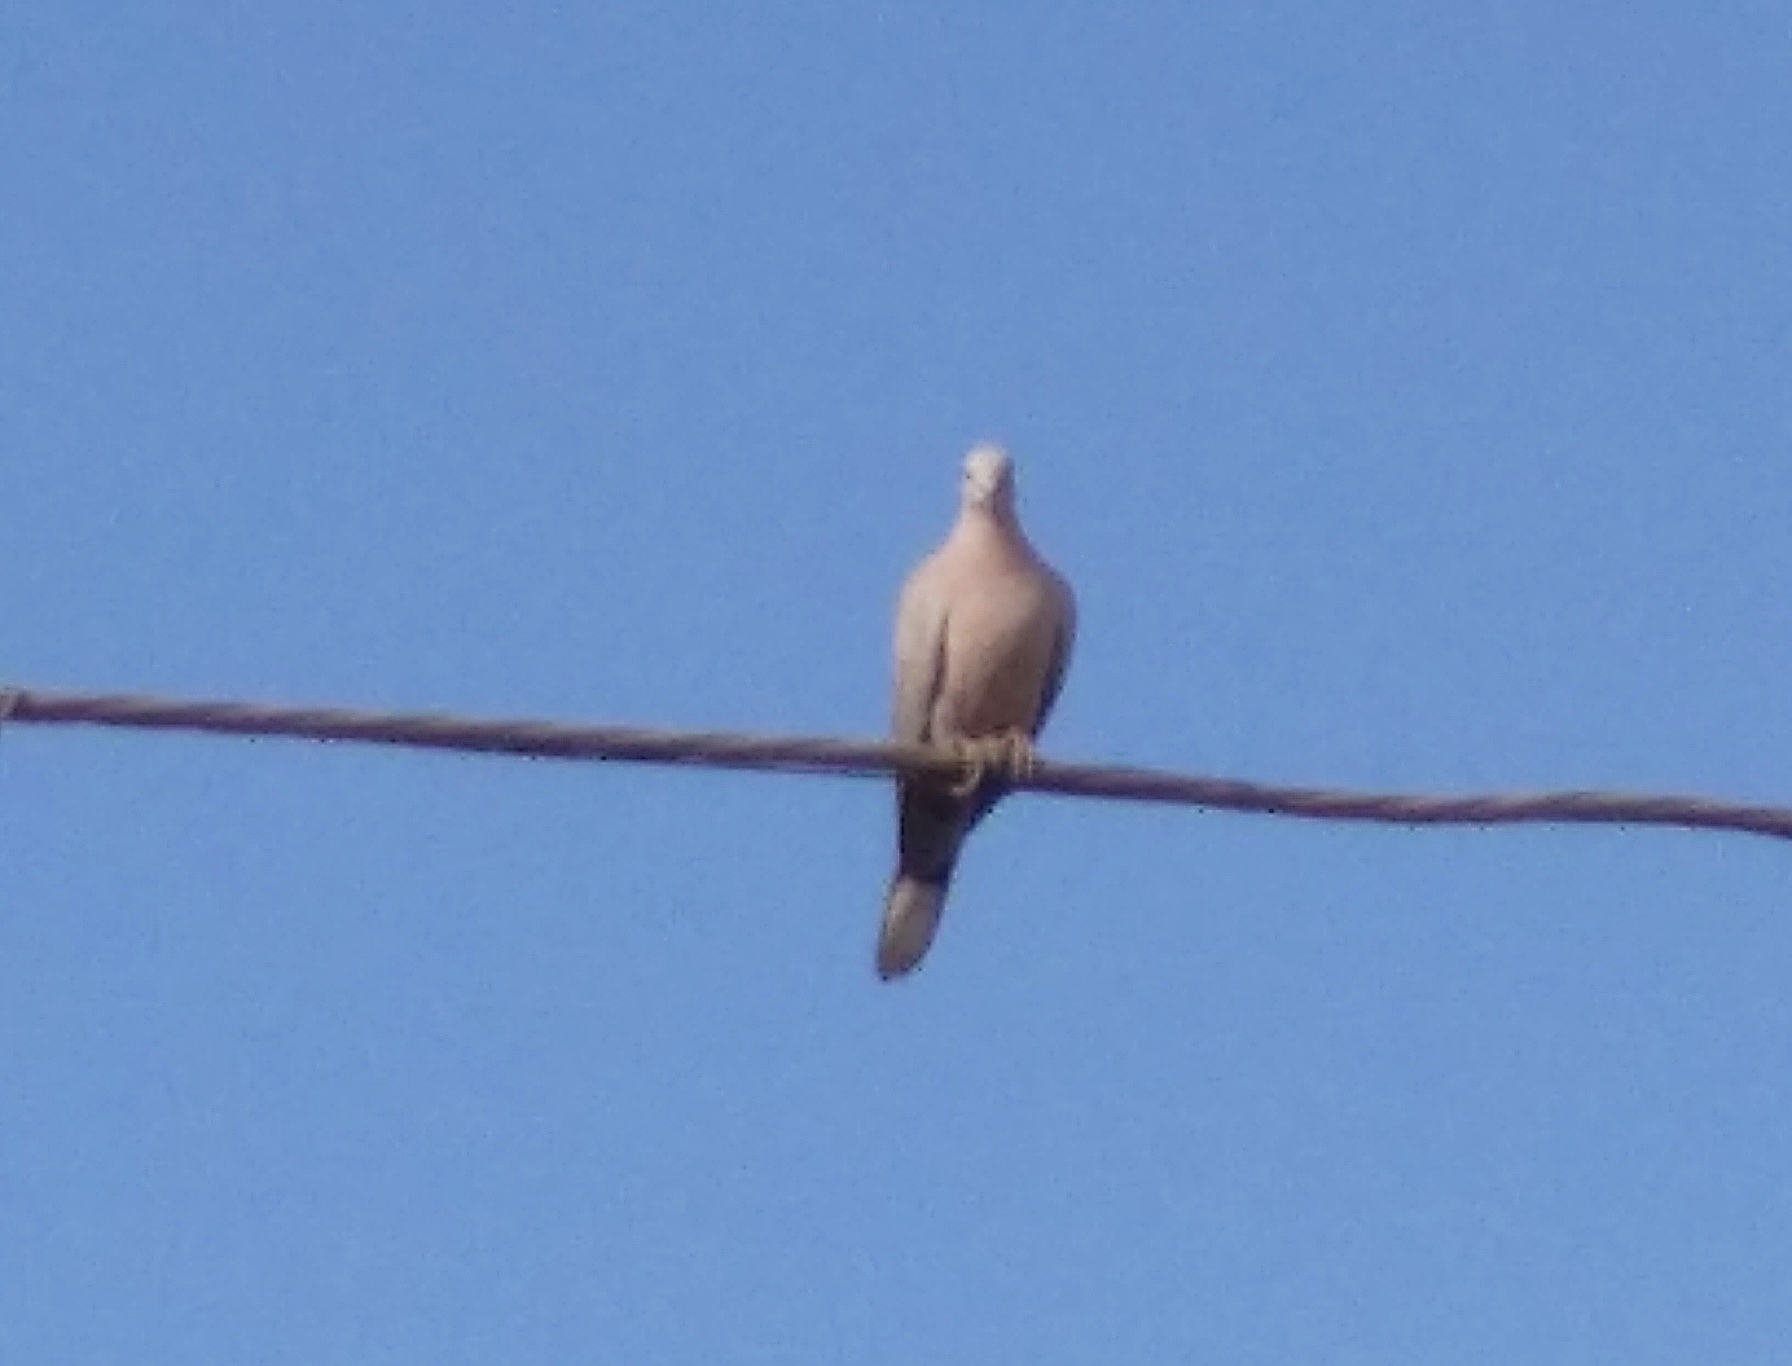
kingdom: Animalia
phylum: Chordata
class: Aves
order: Columbiformes
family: Columbidae
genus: Streptopelia
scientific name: Streptopelia decaocto
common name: Eurasian collared dove
